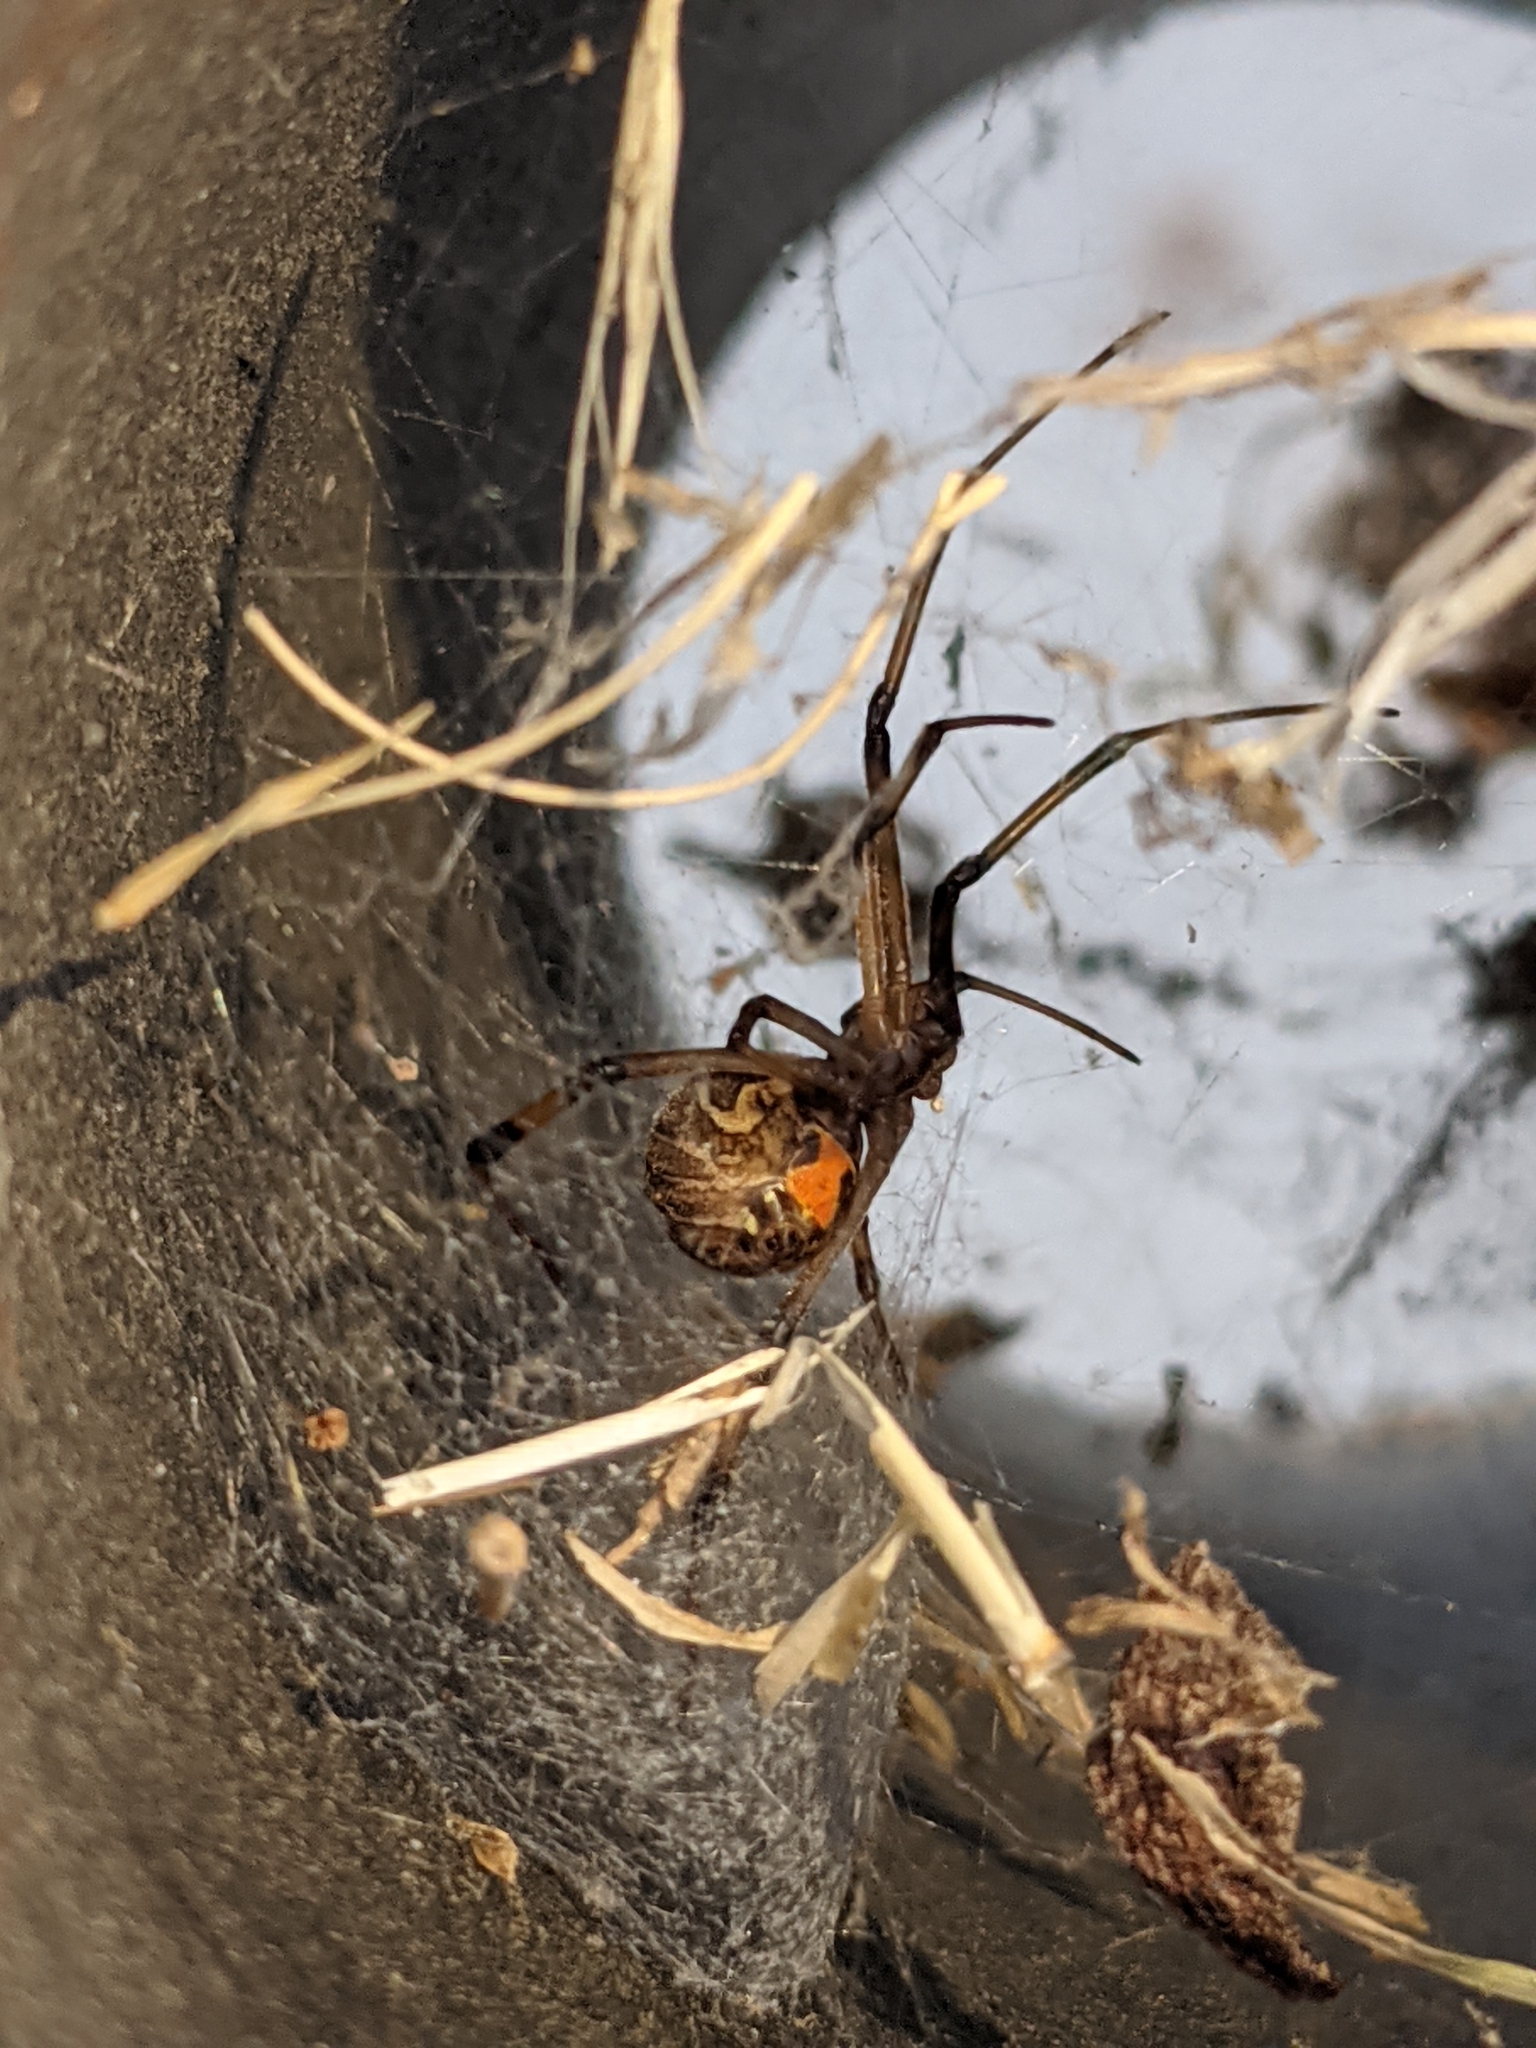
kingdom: Animalia
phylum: Arthropoda
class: Arachnida
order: Araneae
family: Theridiidae
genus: Latrodectus
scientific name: Latrodectus geometricus
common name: Brown widow spider
